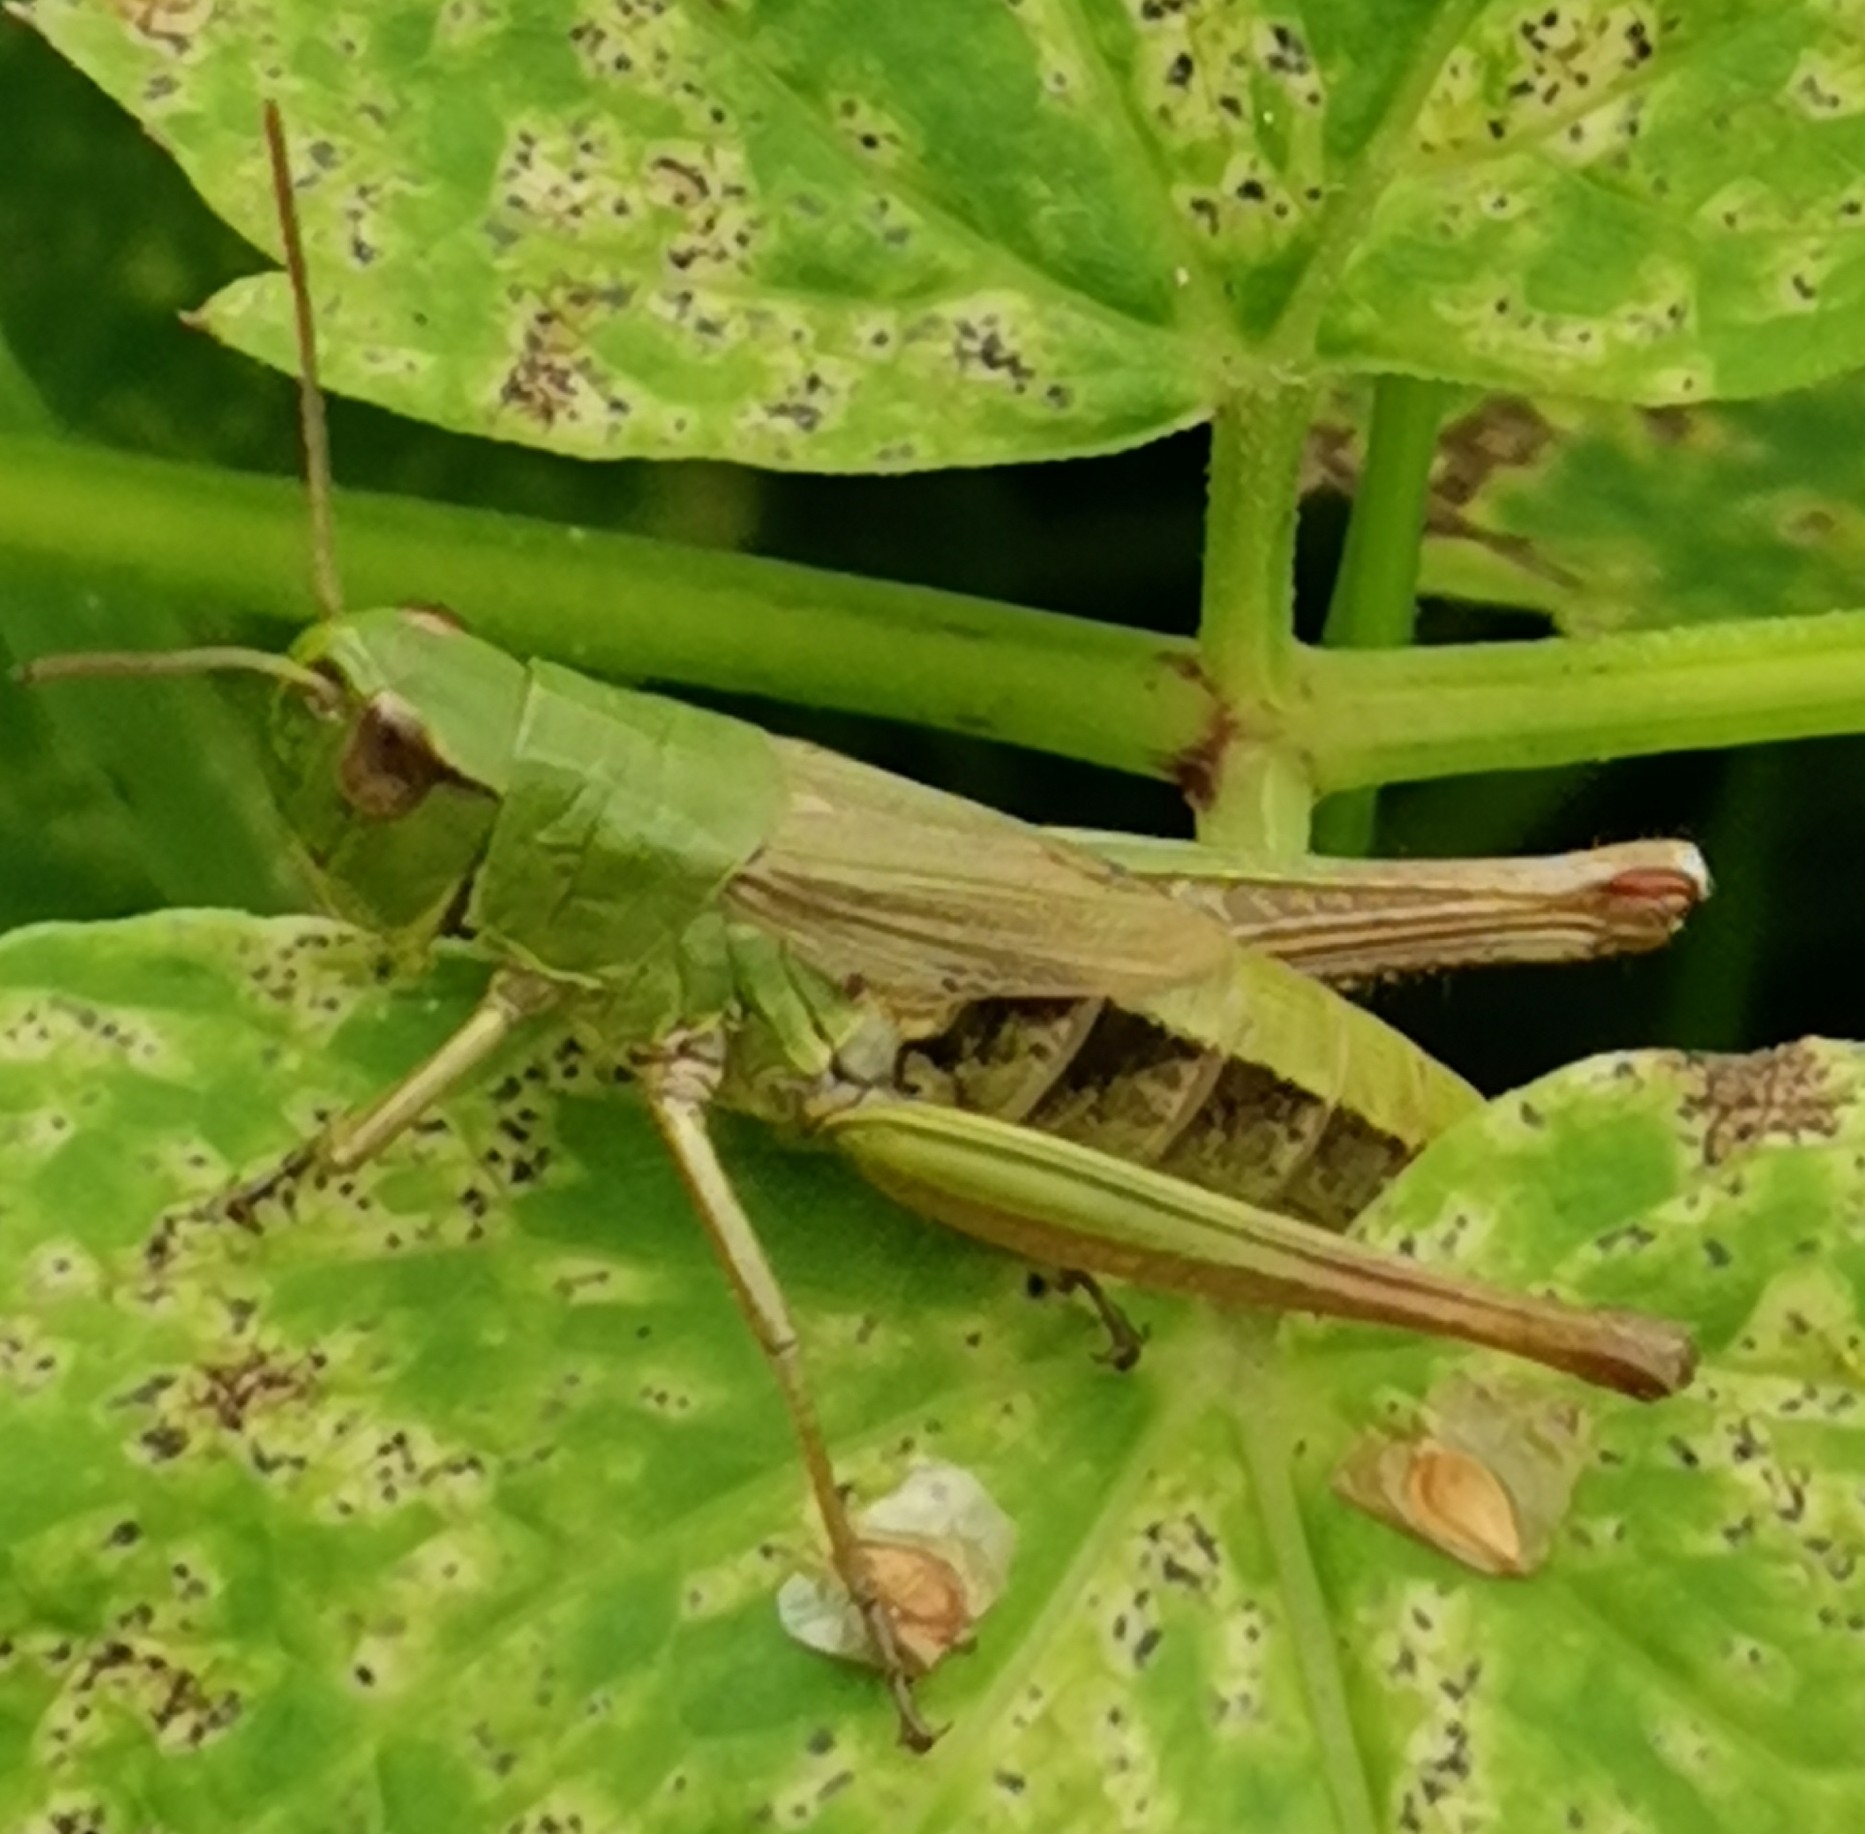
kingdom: Animalia
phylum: Arthropoda
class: Insecta
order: Orthoptera
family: Acrididae
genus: Pseudochorthippus
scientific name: Pseudochorthippus parallelus
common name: Meadow grasshopper
